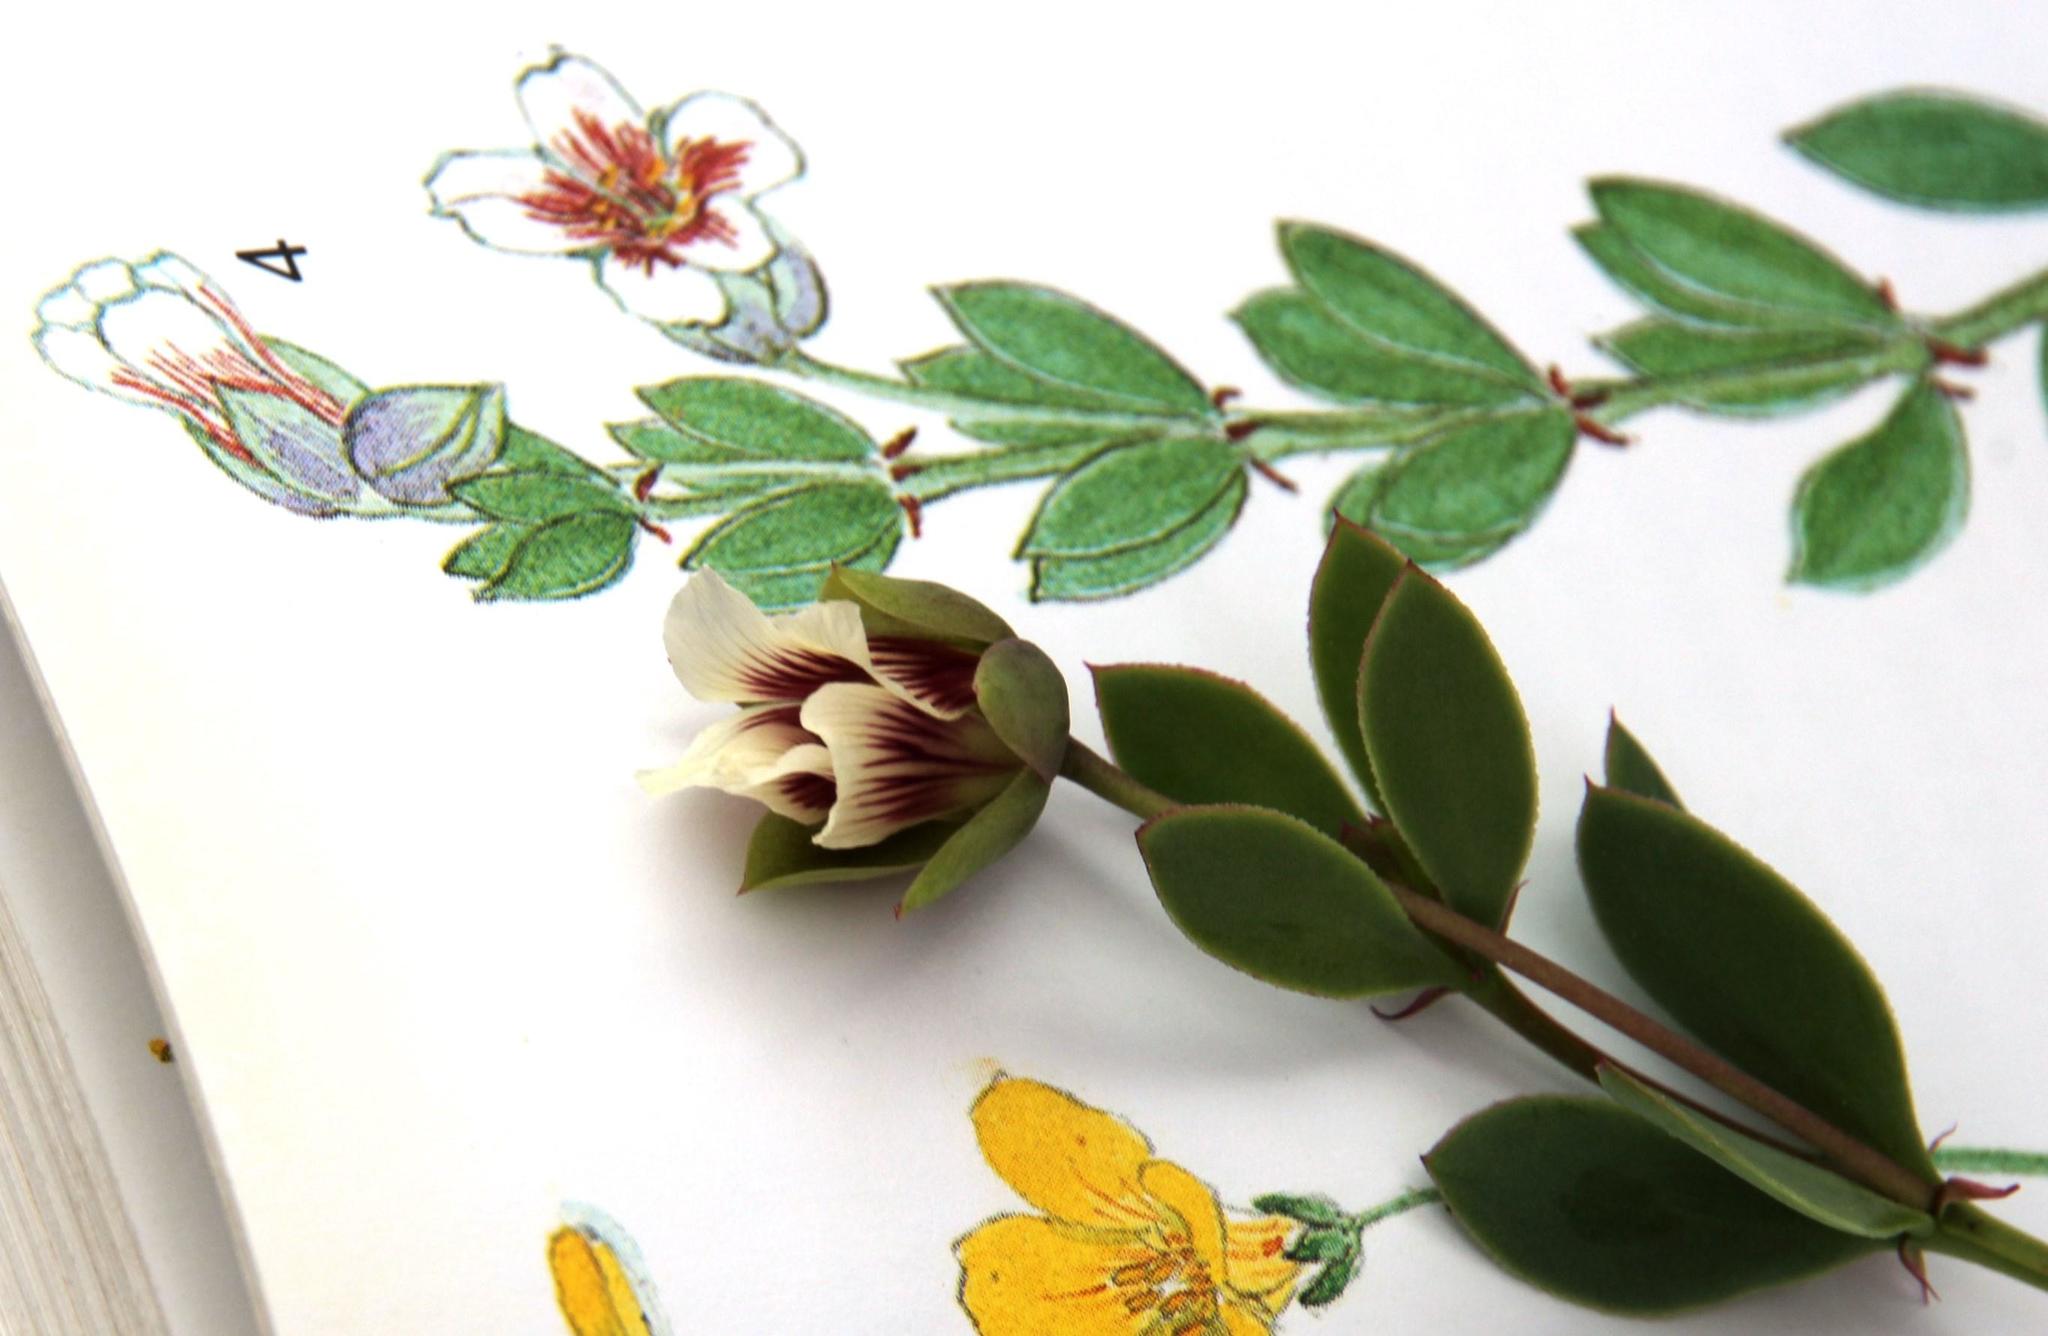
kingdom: Plantae
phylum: Tracheophyta
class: Magnoliopsida
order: Zygophyllales
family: Zygophyllaceae
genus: Roepera
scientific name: Roepera sessilifolia
